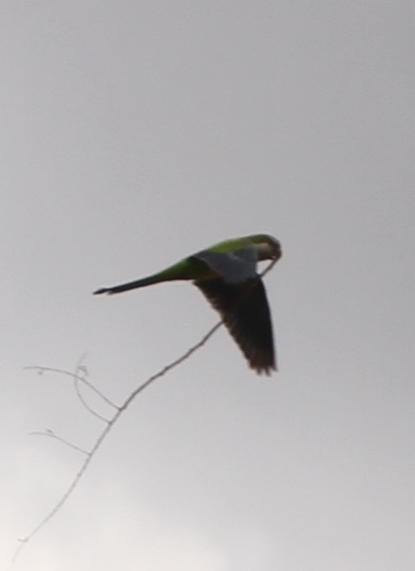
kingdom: Animalia
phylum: Chordata
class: Aves
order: Psittaciformes
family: Psittacidae
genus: Myiopsitta
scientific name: Myiopsitta monachus
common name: Monk parakeet
